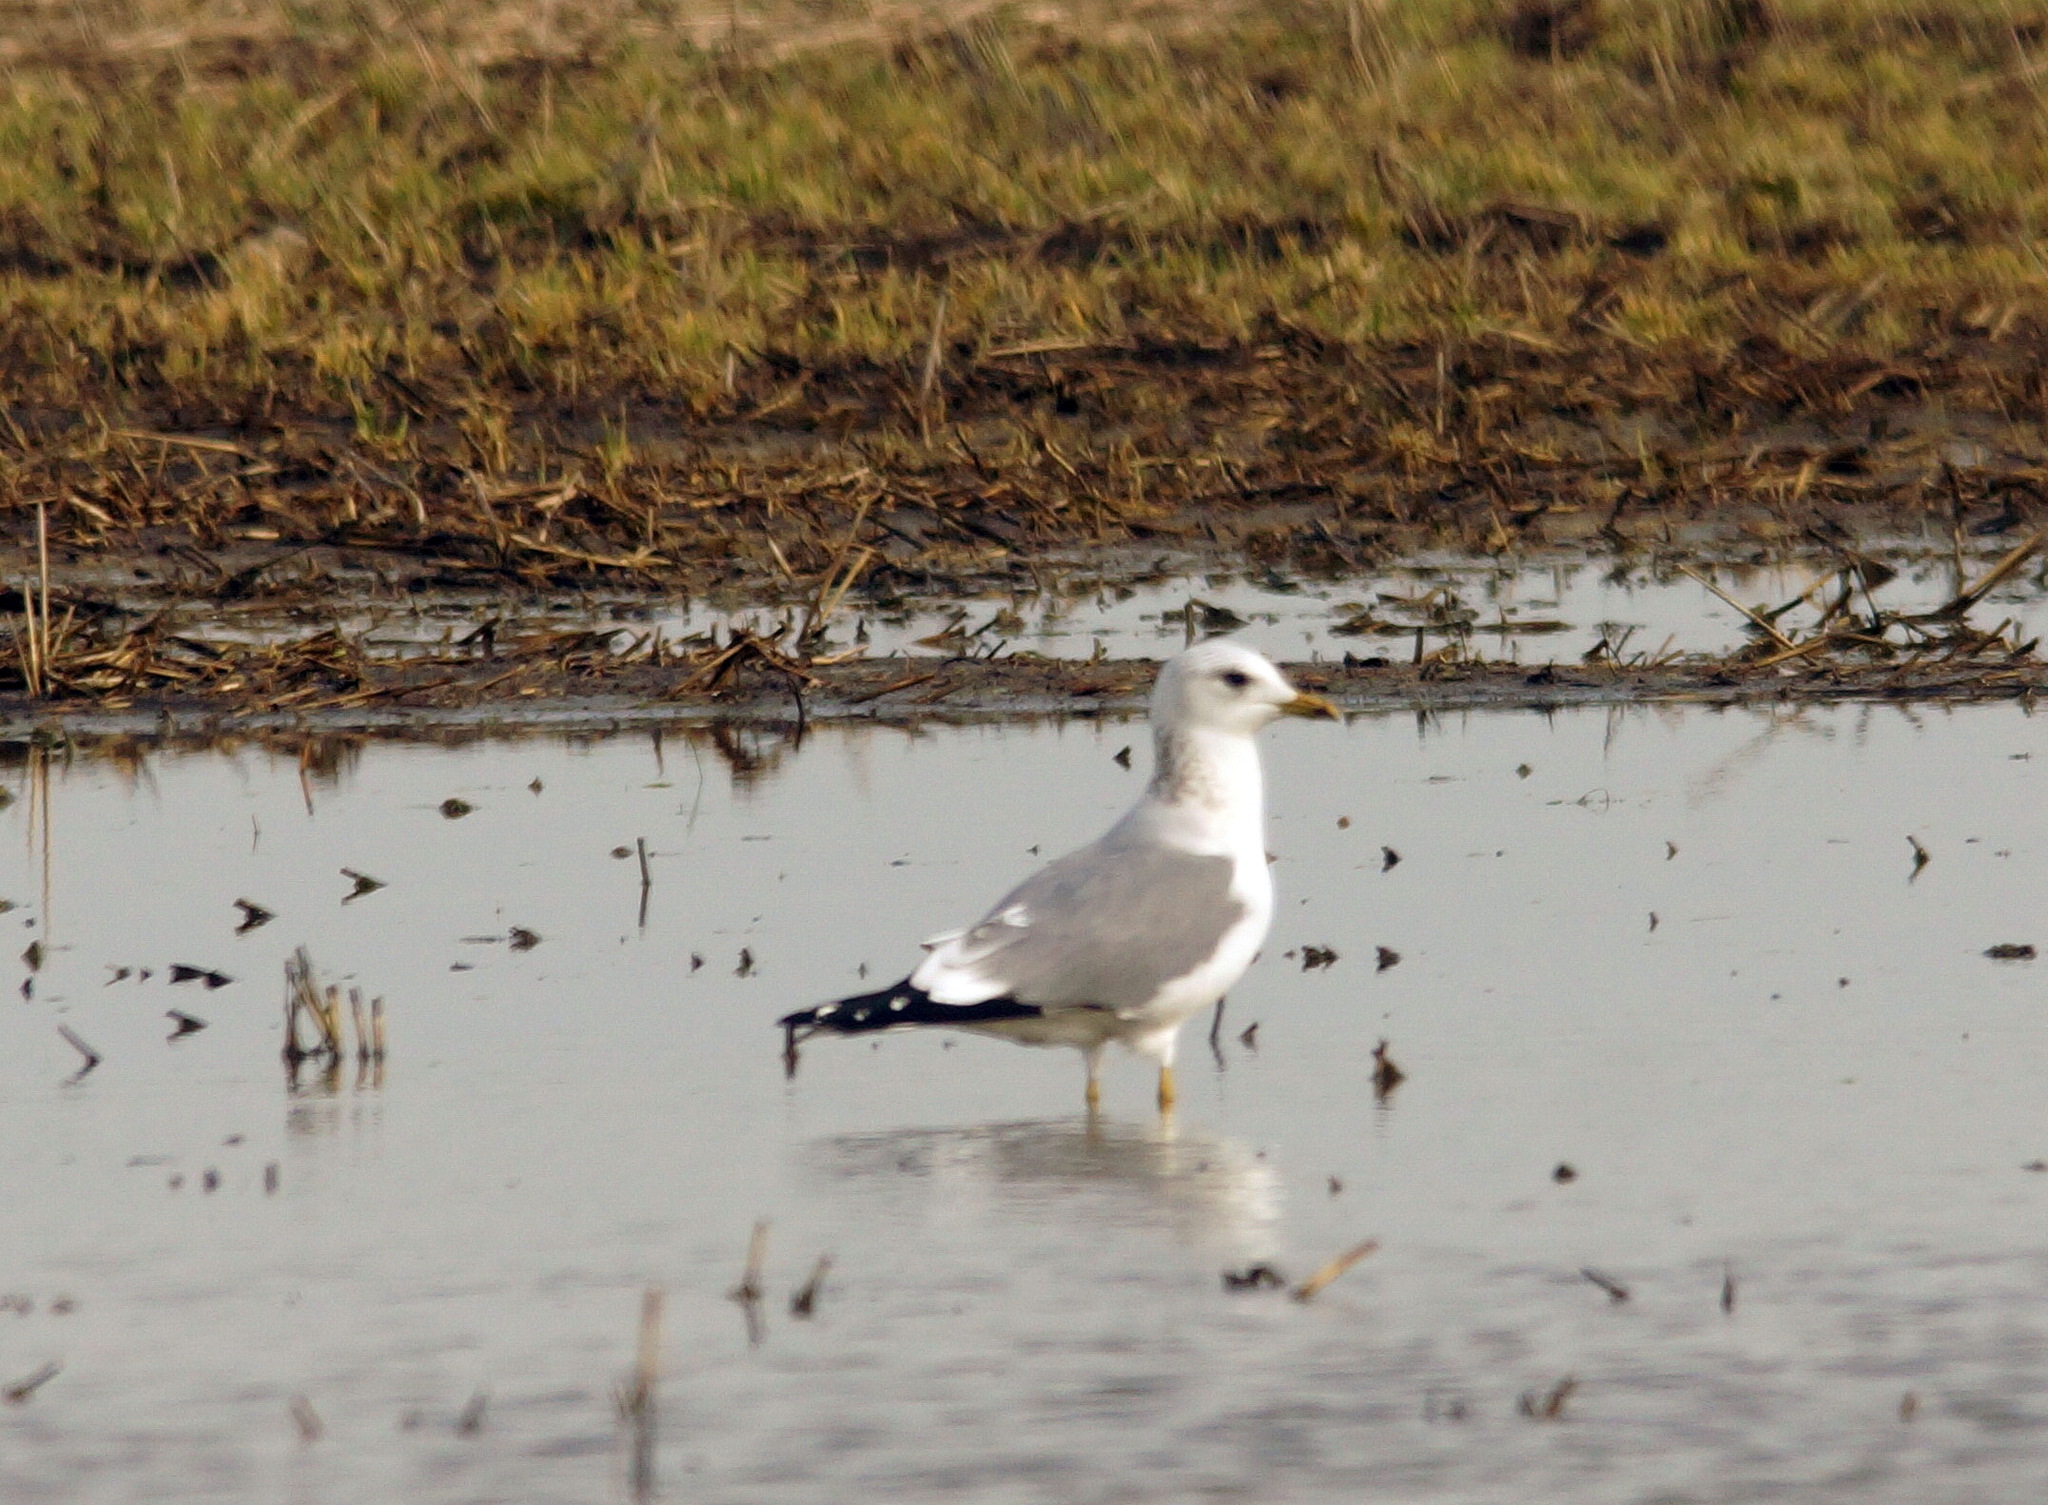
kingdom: Animalia
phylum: Chordata
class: Aves
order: Charadriiformes
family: Laridae
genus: Larus
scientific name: Larus canus
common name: Mew gull
